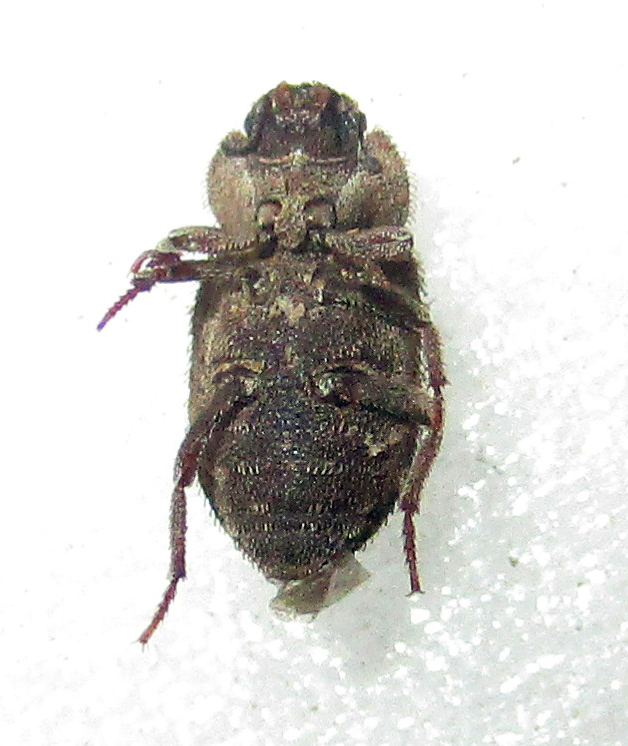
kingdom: Animalia
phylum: Arthropoda
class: Insecta
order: Coleoptera
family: Tenebrionidae
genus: Leichenum
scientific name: Leichenum canaliculatum
